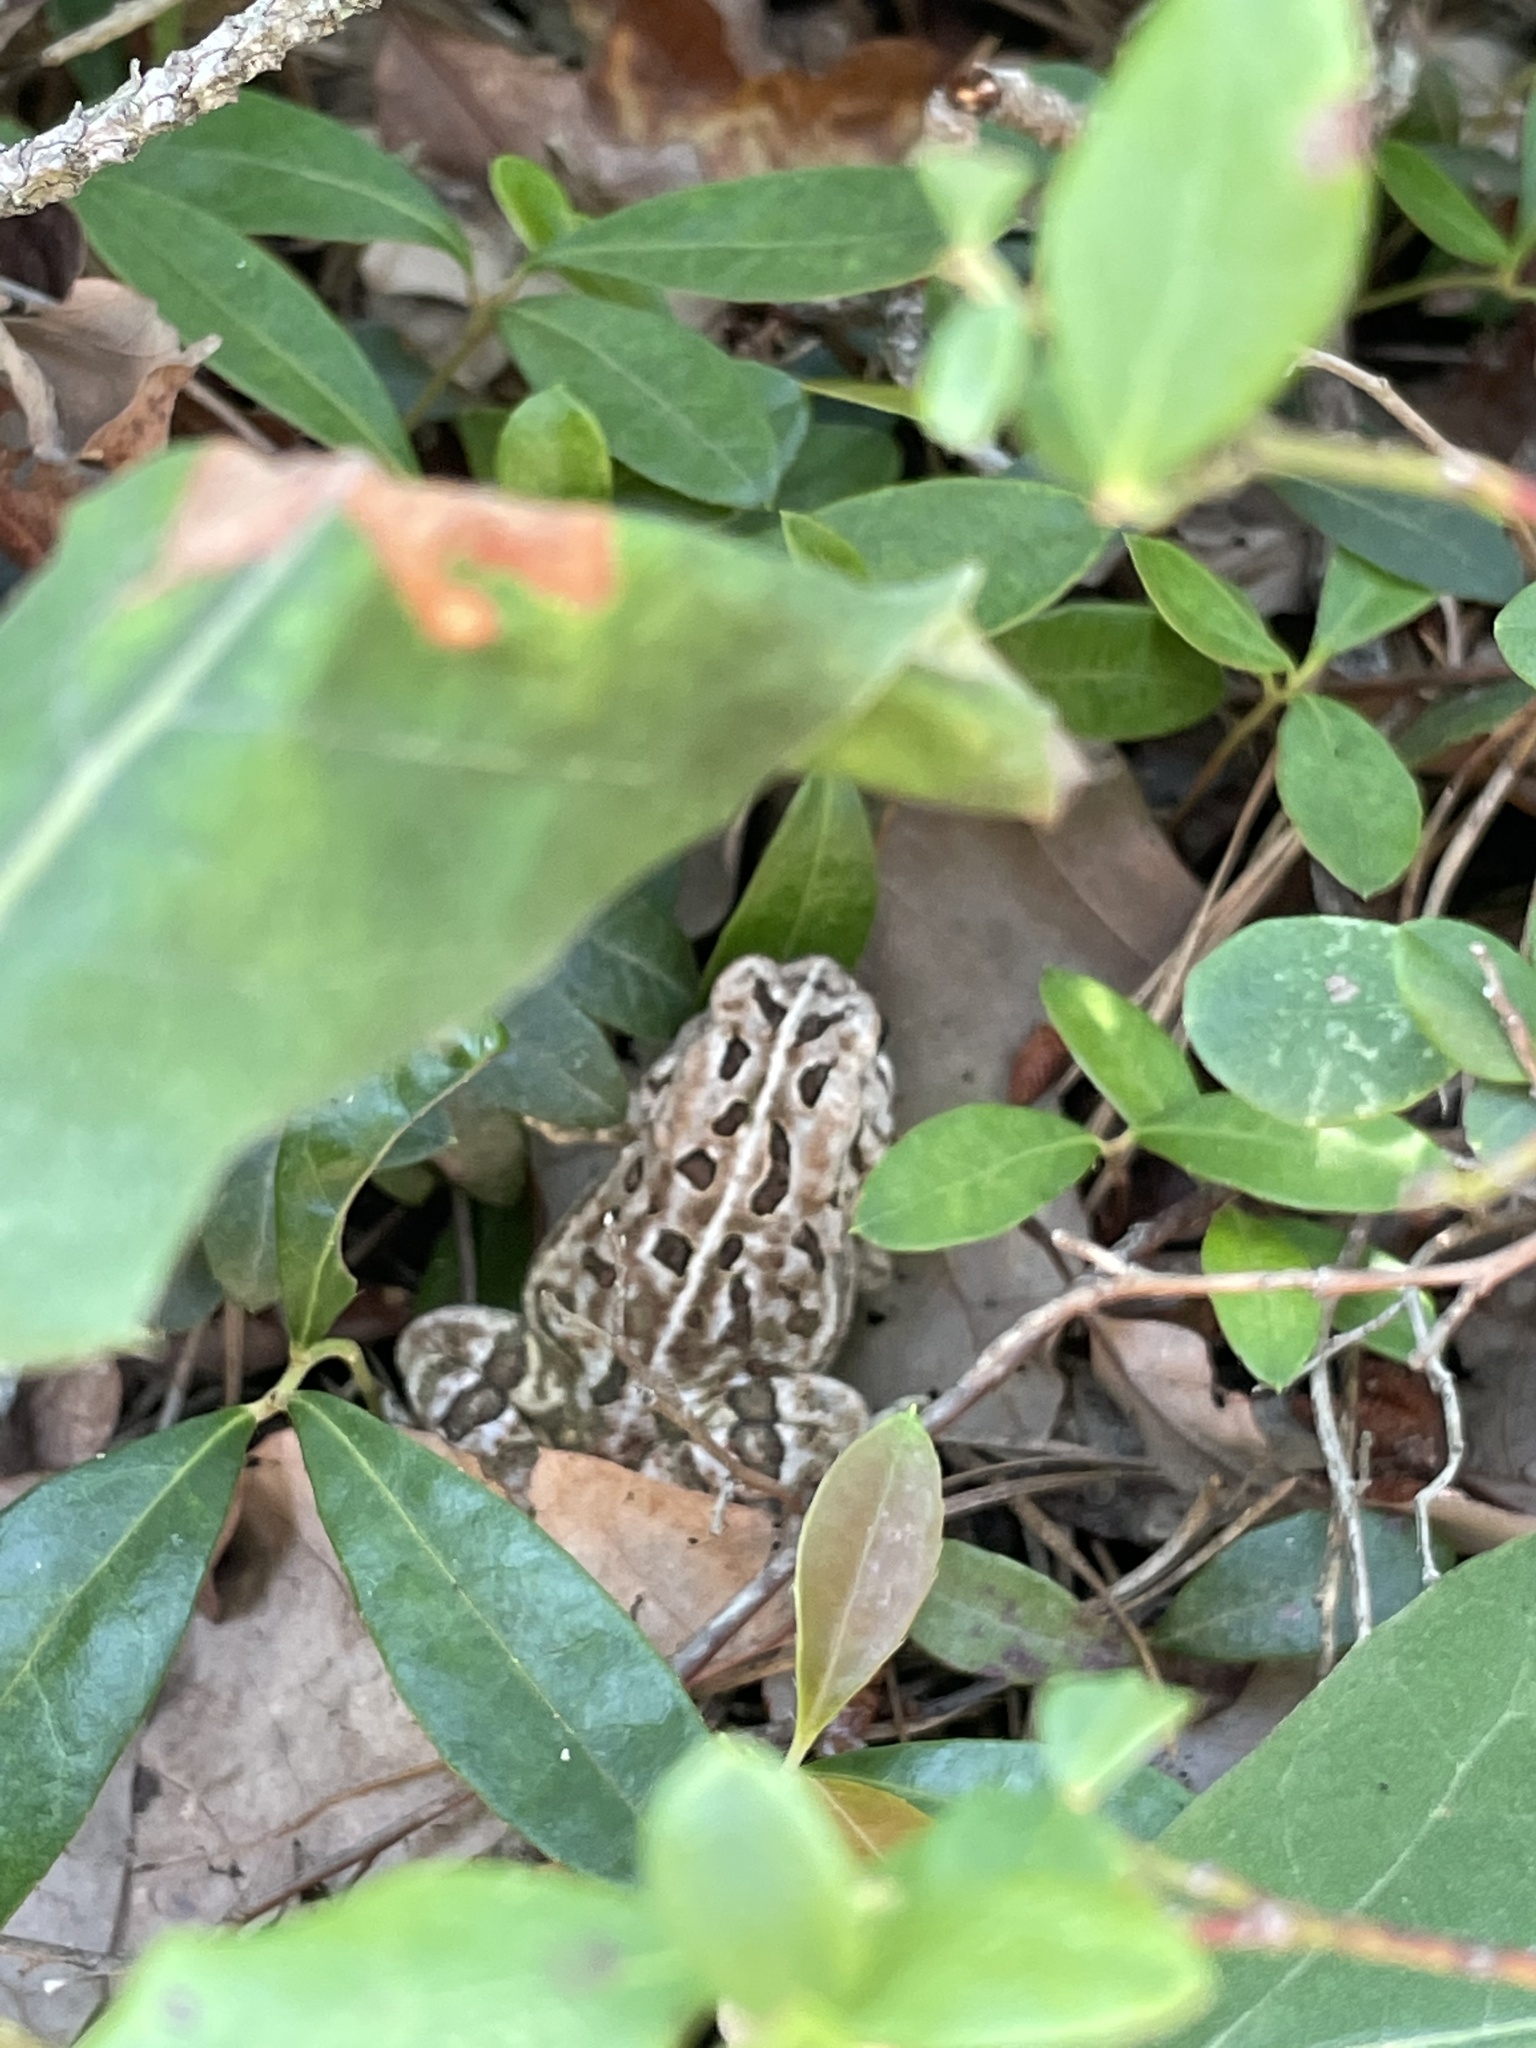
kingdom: Animalia
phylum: Chordata
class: Amphibia
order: Anura
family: Bufonidae
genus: Anaxyrus
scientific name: Anaxyrus fowleri
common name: Fowler's toad
